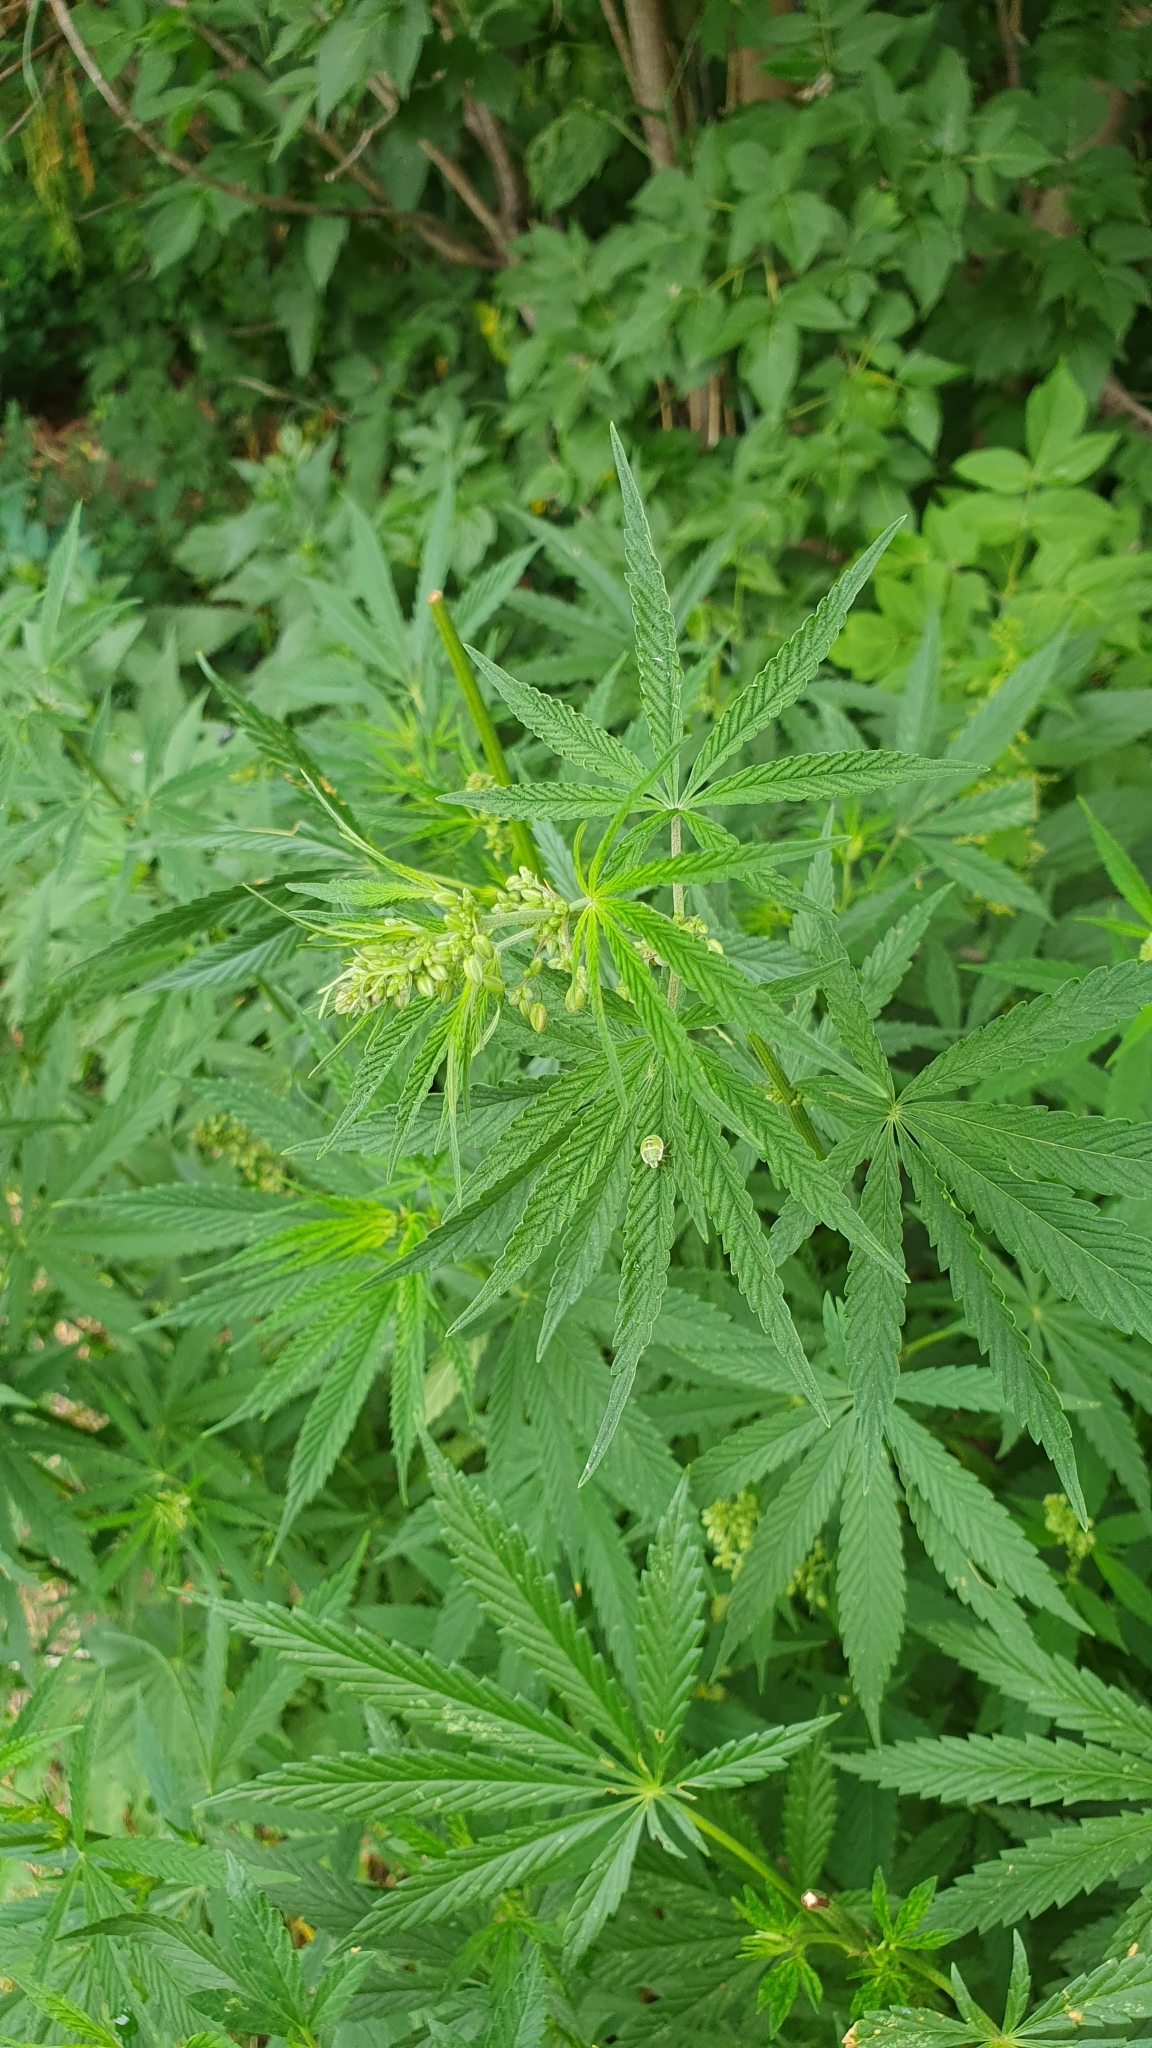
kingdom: Plantae
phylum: Tracheophyta
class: Magnoliopsida
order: Rosales
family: Cannabaceae
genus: Cannabis
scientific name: Cannabis sativa
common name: Hemp
